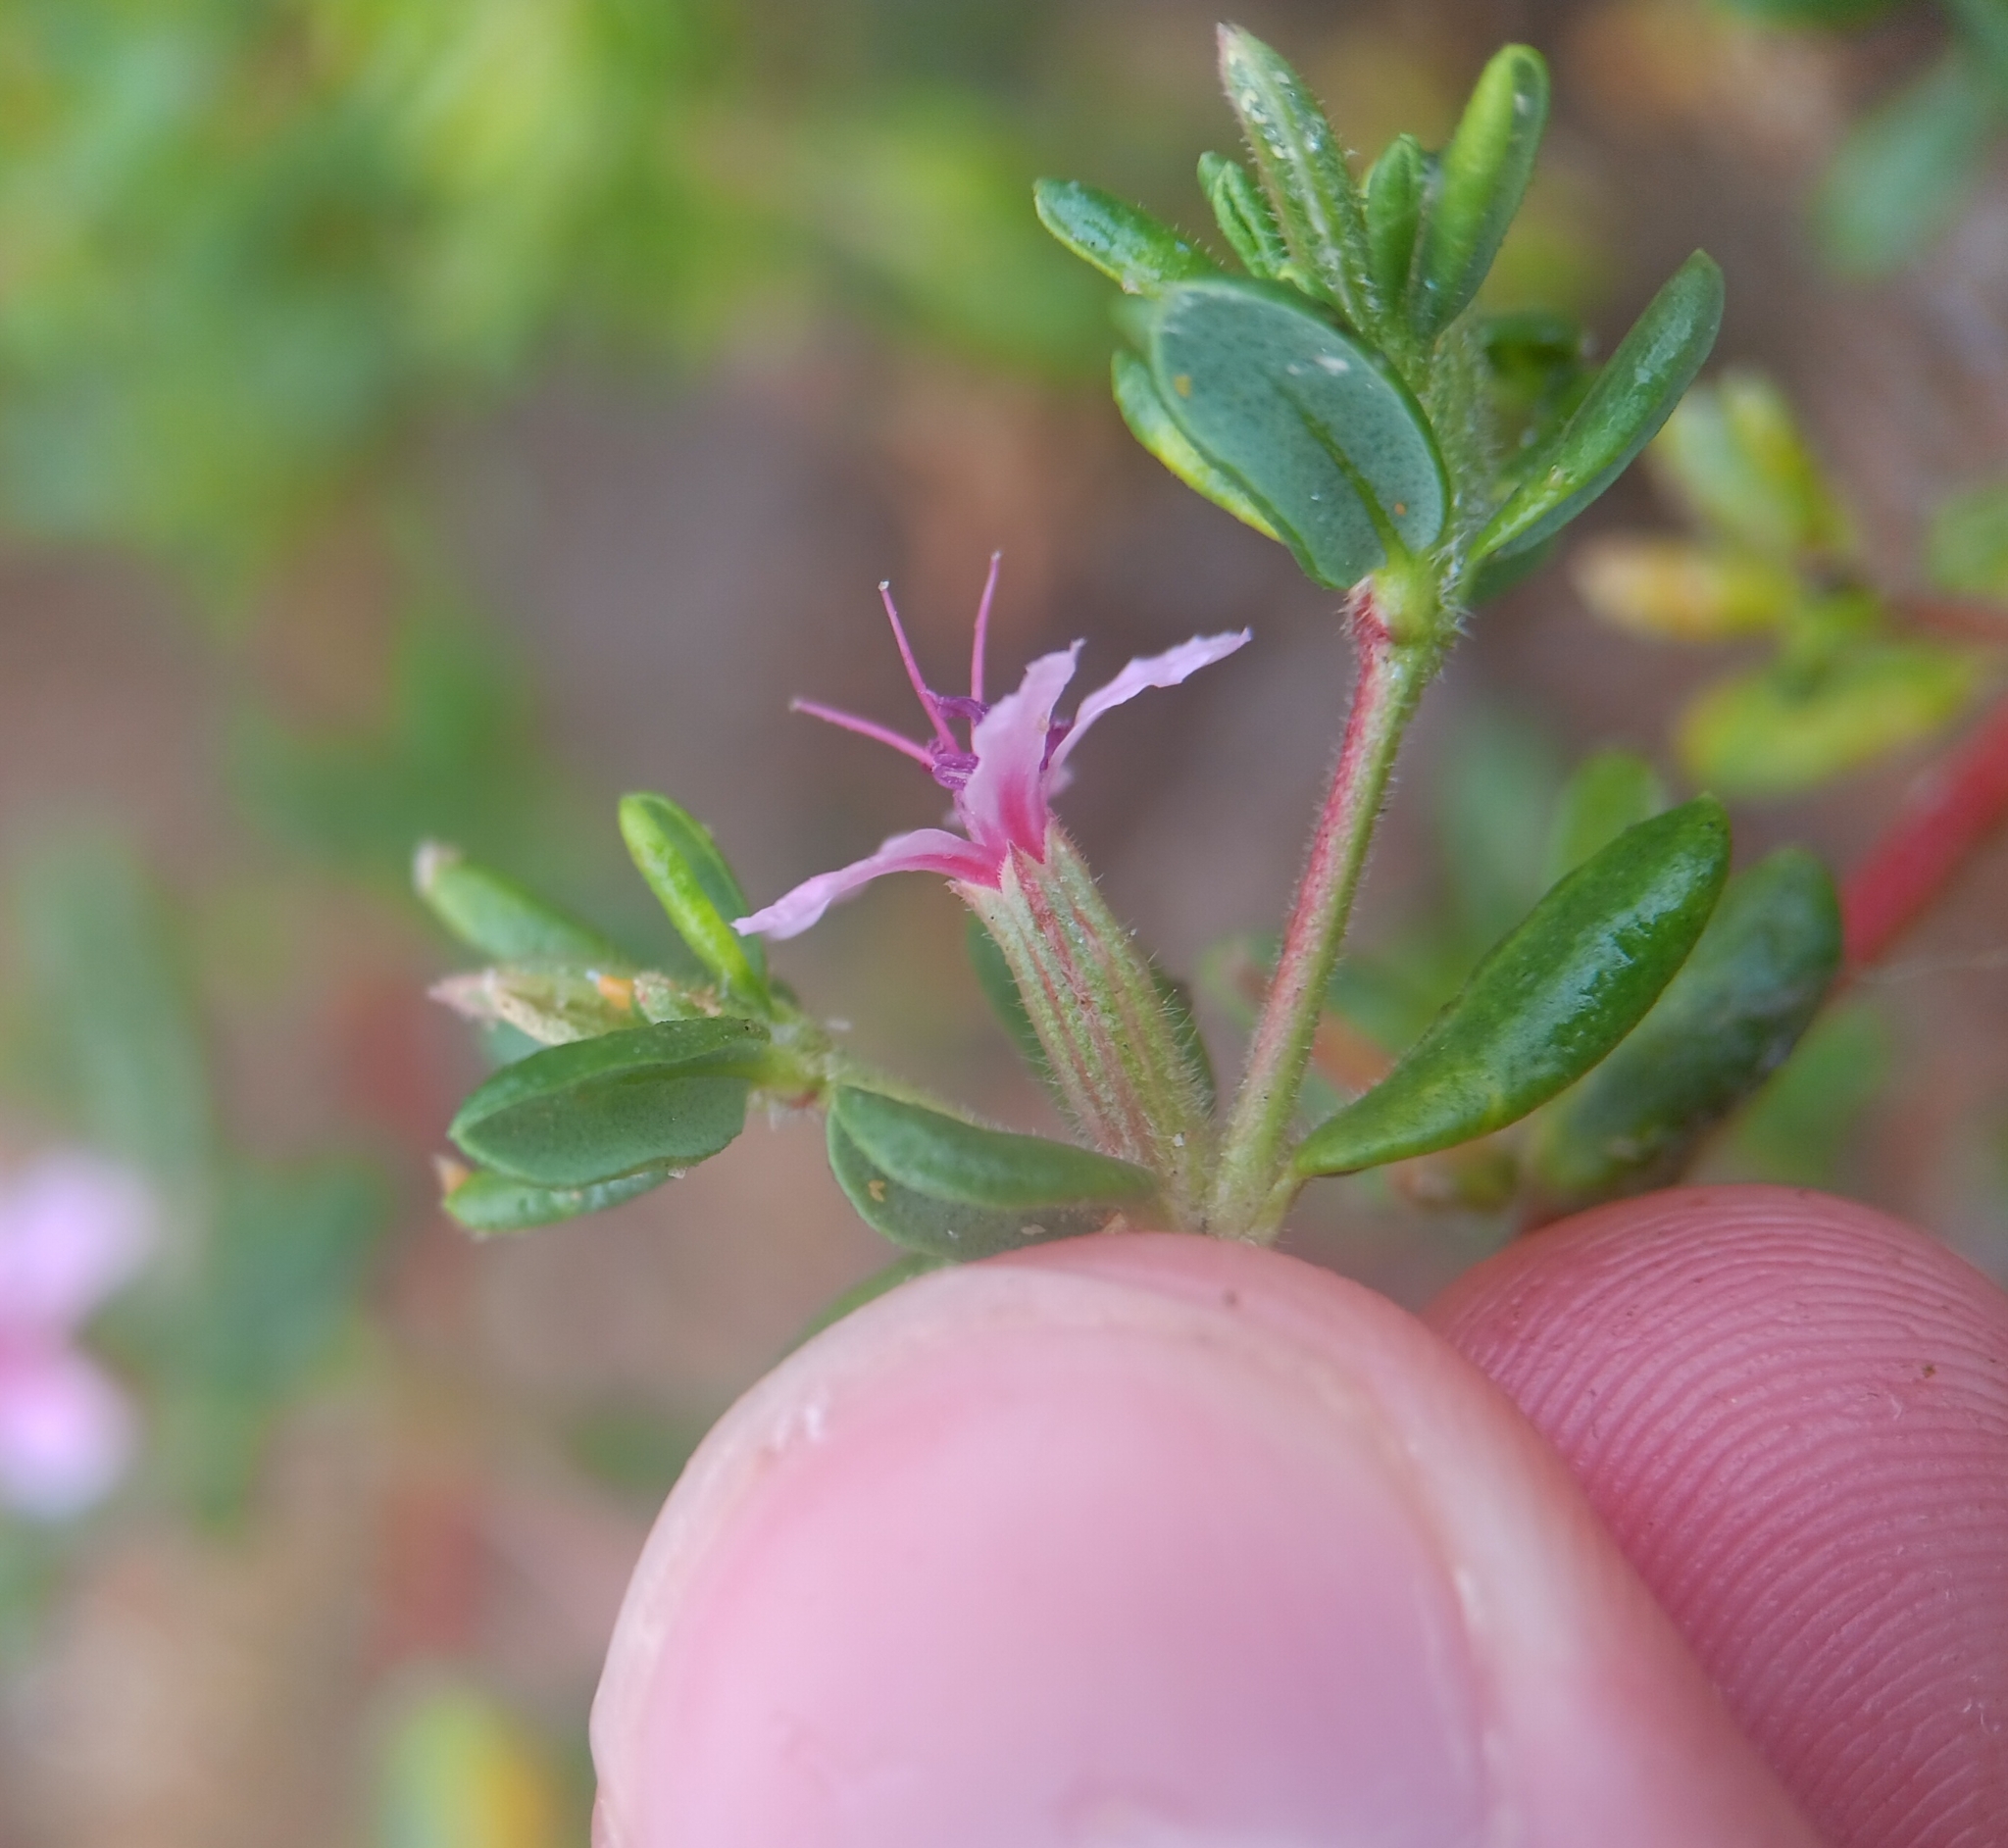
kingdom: Plantae
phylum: Tracheophyta
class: Magnoliopsida
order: Caryophyllales
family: Frankeniaceae
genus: Frankenia
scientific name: Frankenia salina
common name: Alkali seaheath
